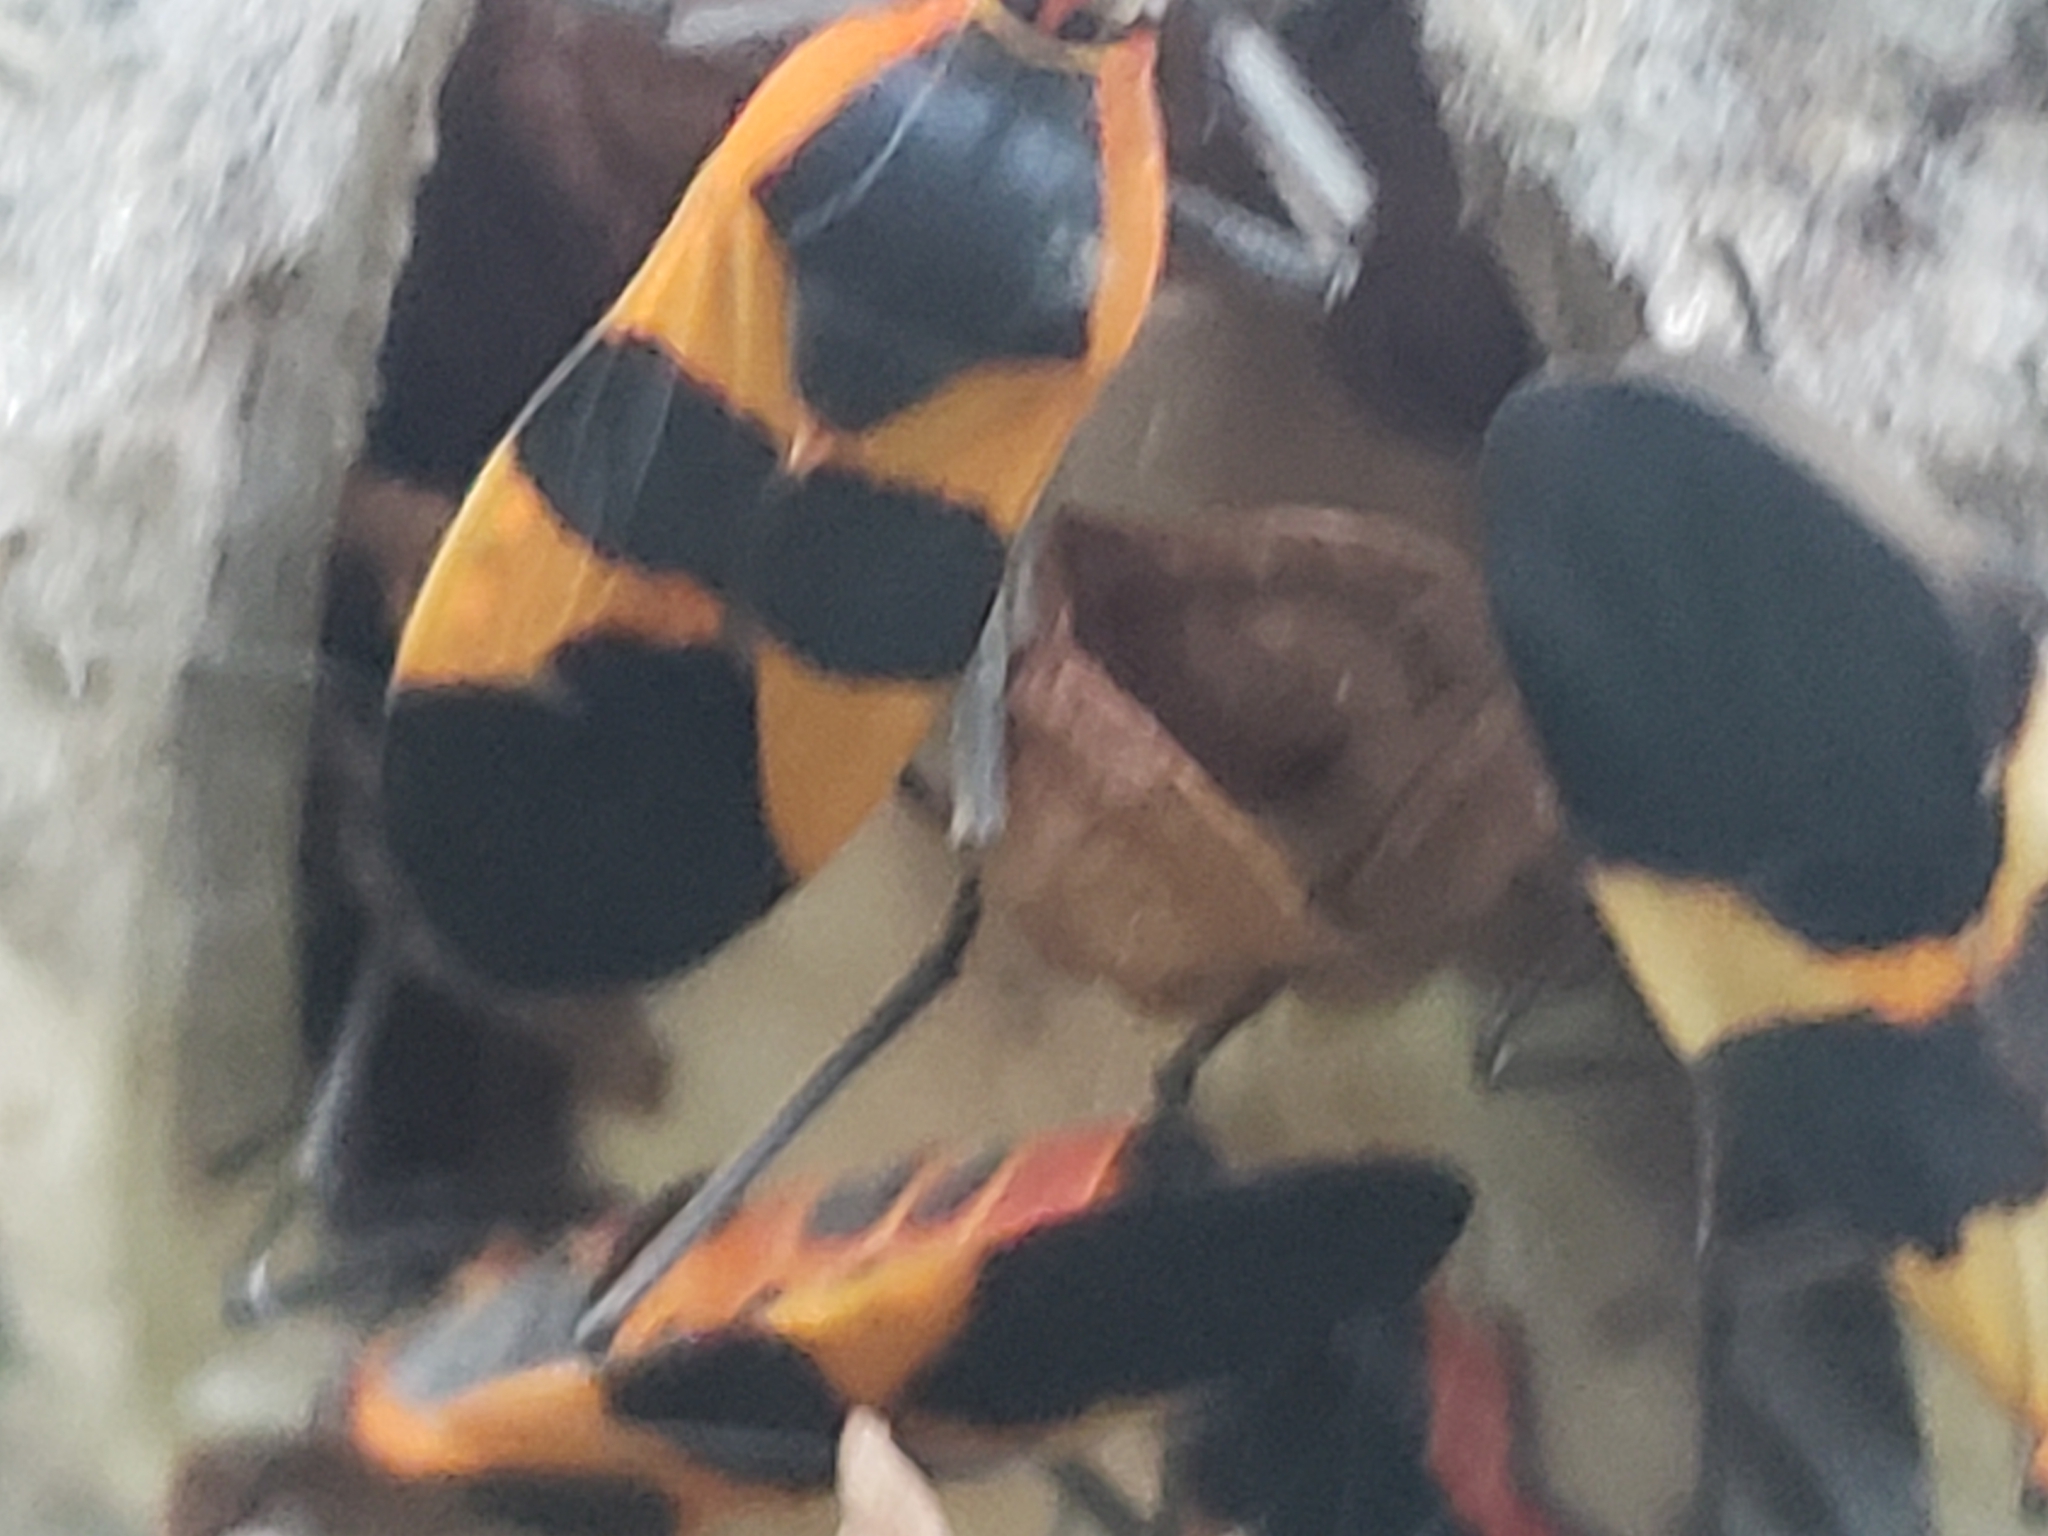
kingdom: Animalia
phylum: Arthropoda
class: Insecta
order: Hemiptera
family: Lygaeidae
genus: Oncopeltus
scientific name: Oncopeltus fasciatus
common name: Large milkweed bug
